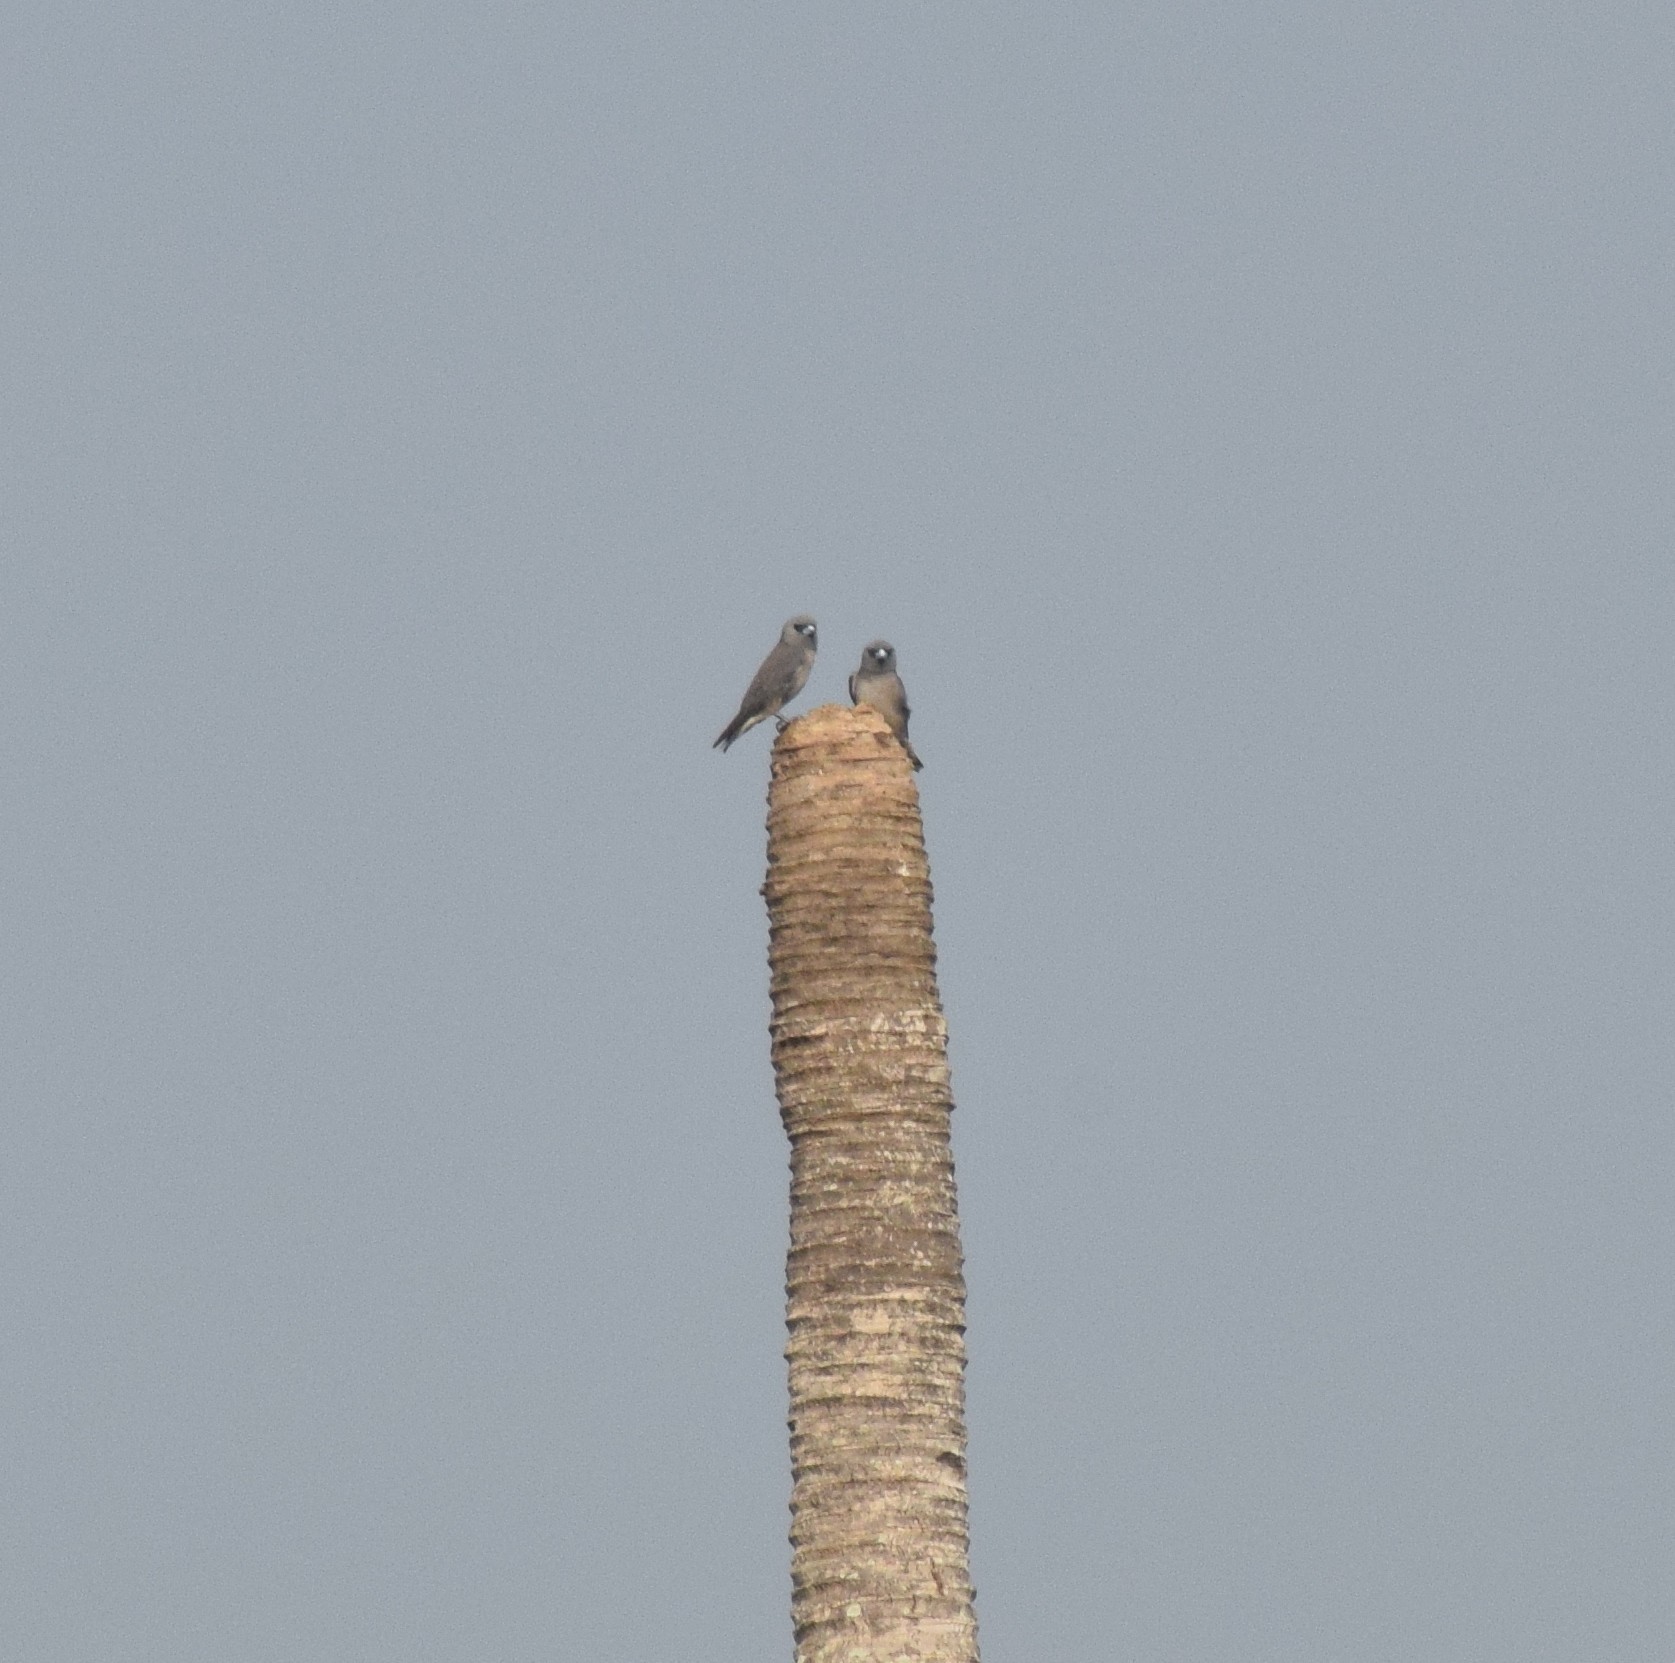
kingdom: Animalia
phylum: Chordata
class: Aves
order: Passeriformes
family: Artamidae
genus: Artamus
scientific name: Artamus fuscus
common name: Ashy woodswallow
